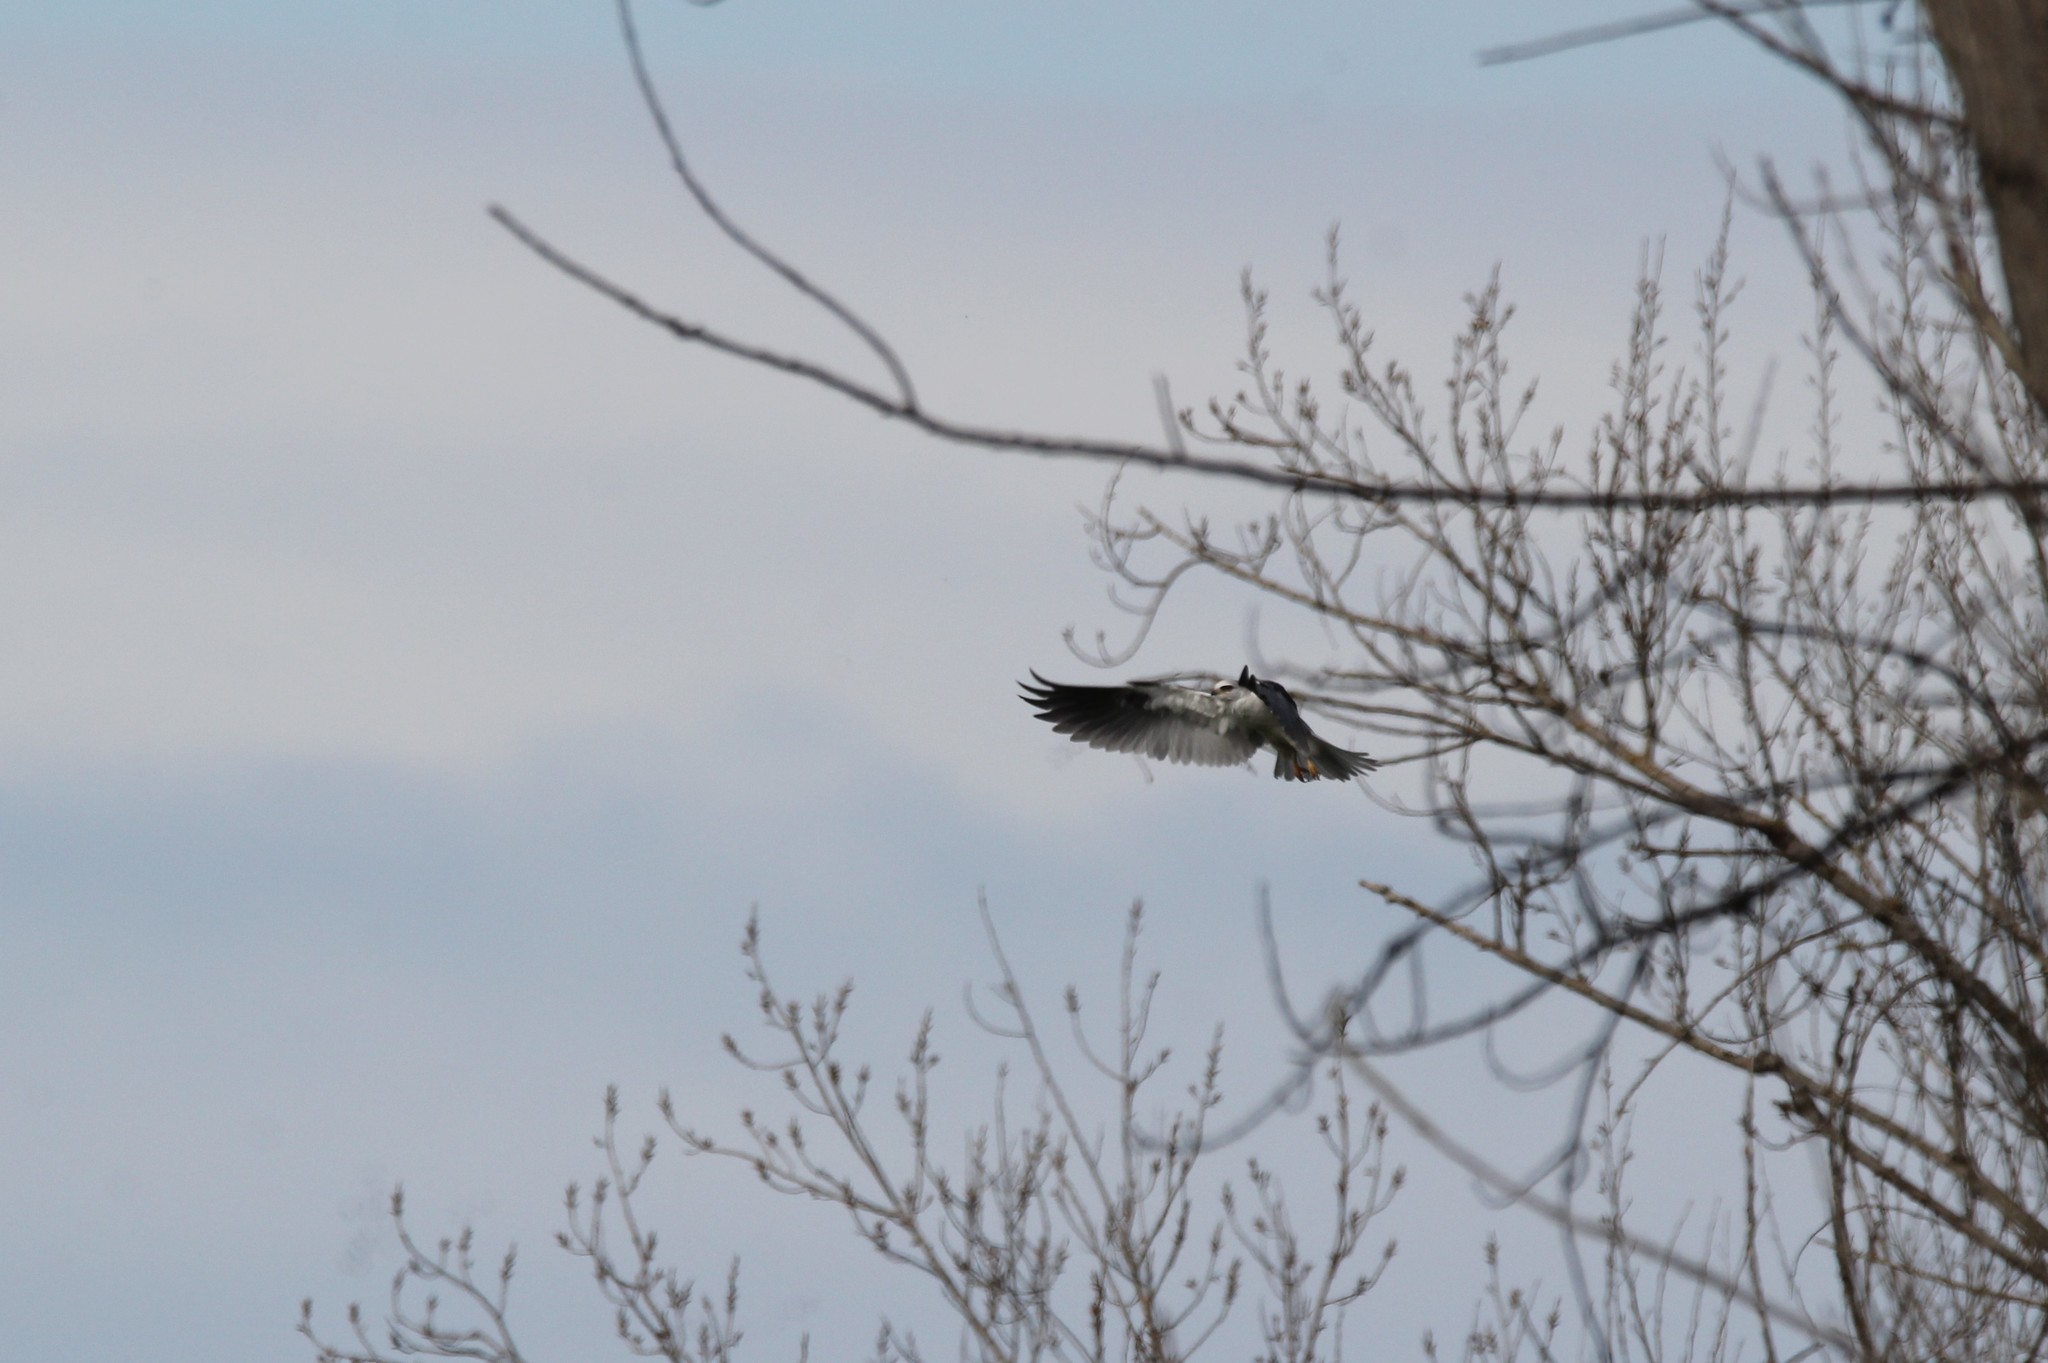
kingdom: Animalia
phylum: Chordata
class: Aves
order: Accipitriformes
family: Accipitridae
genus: Elanus
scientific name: Elanus leucurus
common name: White-tailed kite
